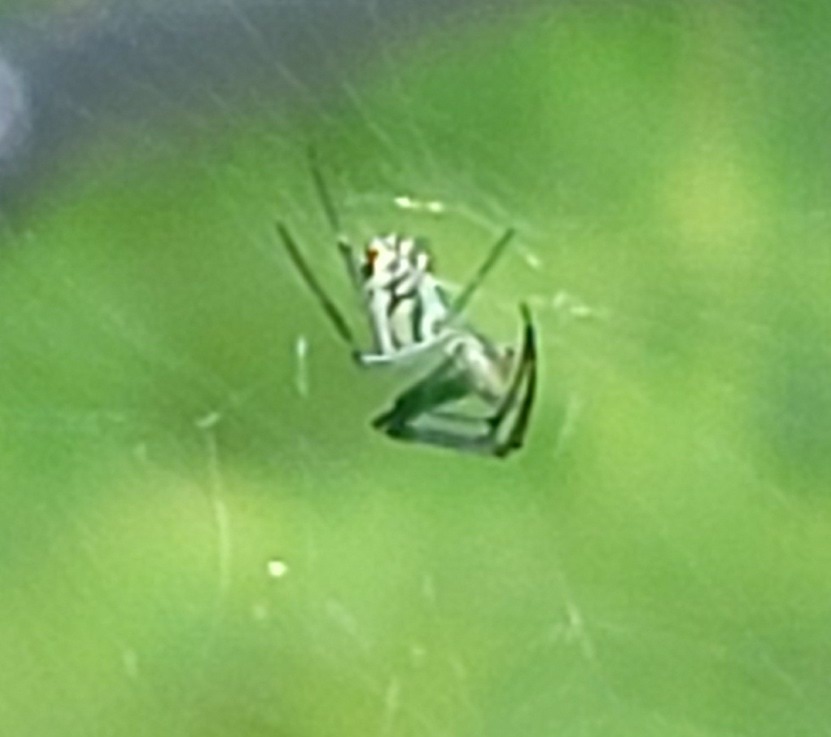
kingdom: Animalia
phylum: Arthropoda
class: Arachnida
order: Araneae
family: Tetragnathidae
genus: Leucauge
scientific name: Leucauge venusta
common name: Longjawed orb weavers
